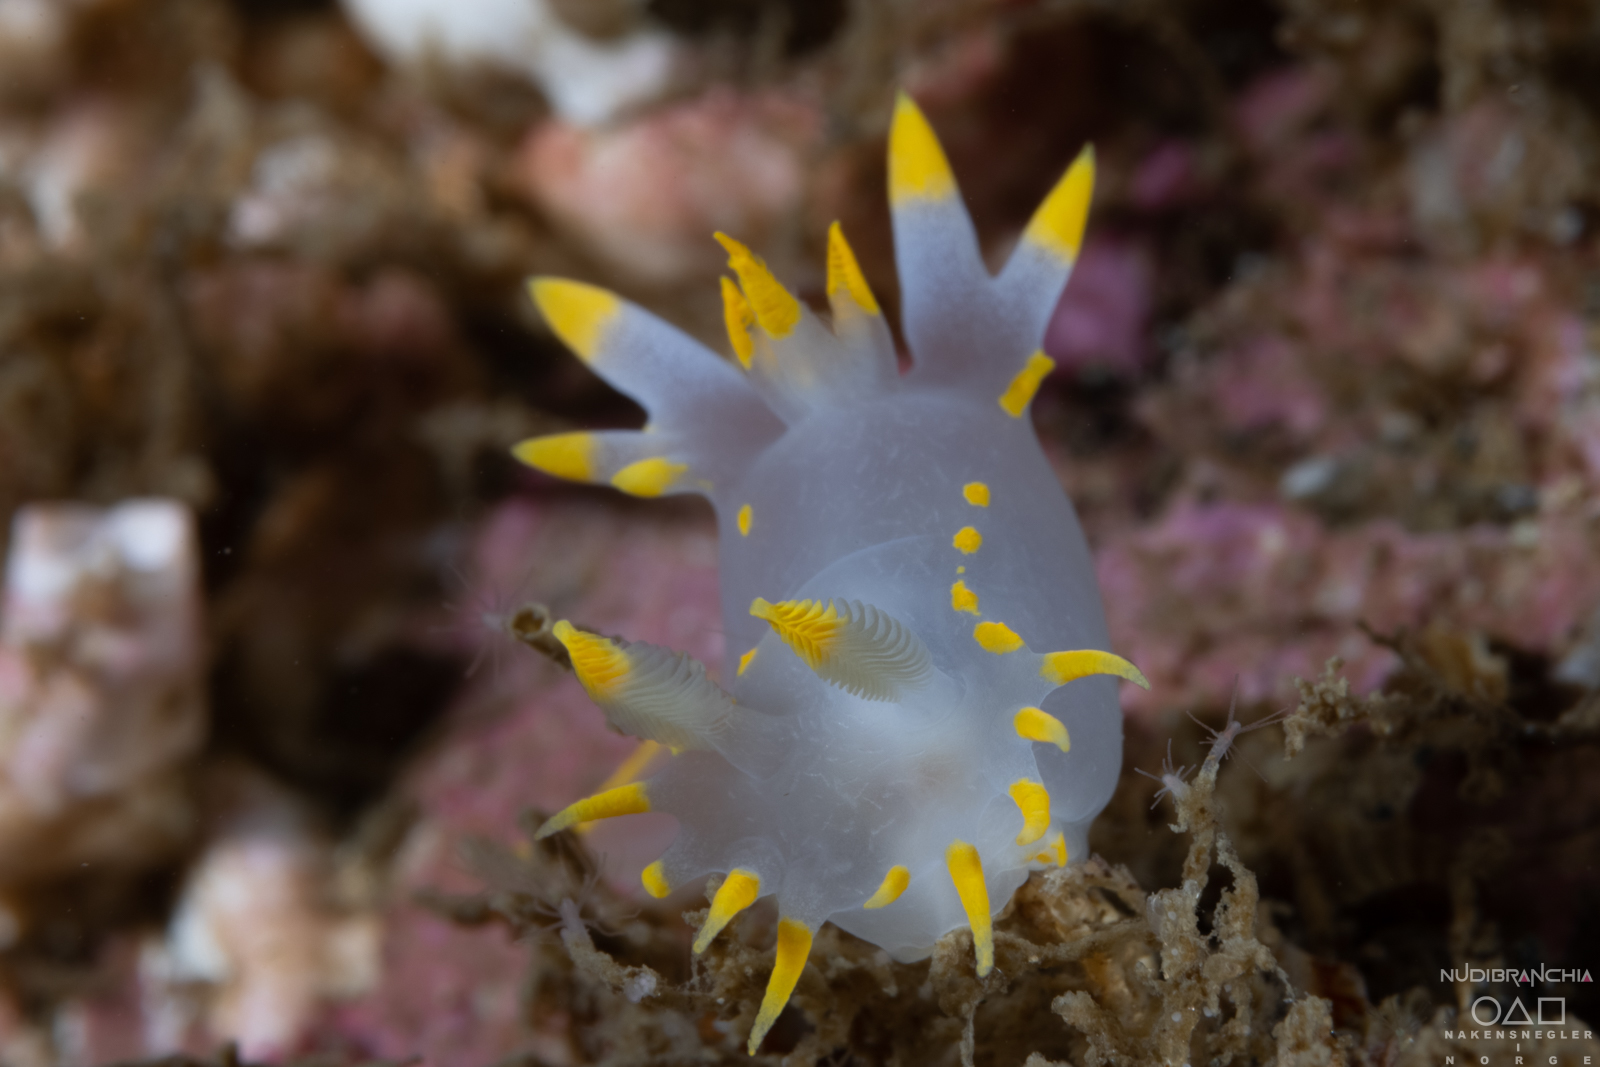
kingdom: Animalia
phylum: Mollusca
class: Gastropoda
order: Nudibranchia
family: Polyceridae
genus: Polycera
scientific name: Polycera faeroensis
